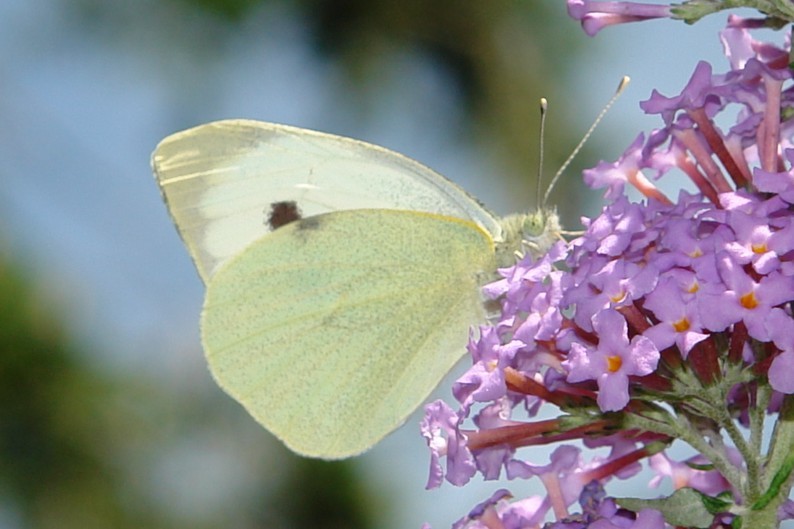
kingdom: Animalia
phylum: Arthropoda
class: Insecta
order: Lepidoptera
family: Pieridae
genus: Pieris
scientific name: Pieris brassicae
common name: Large white
